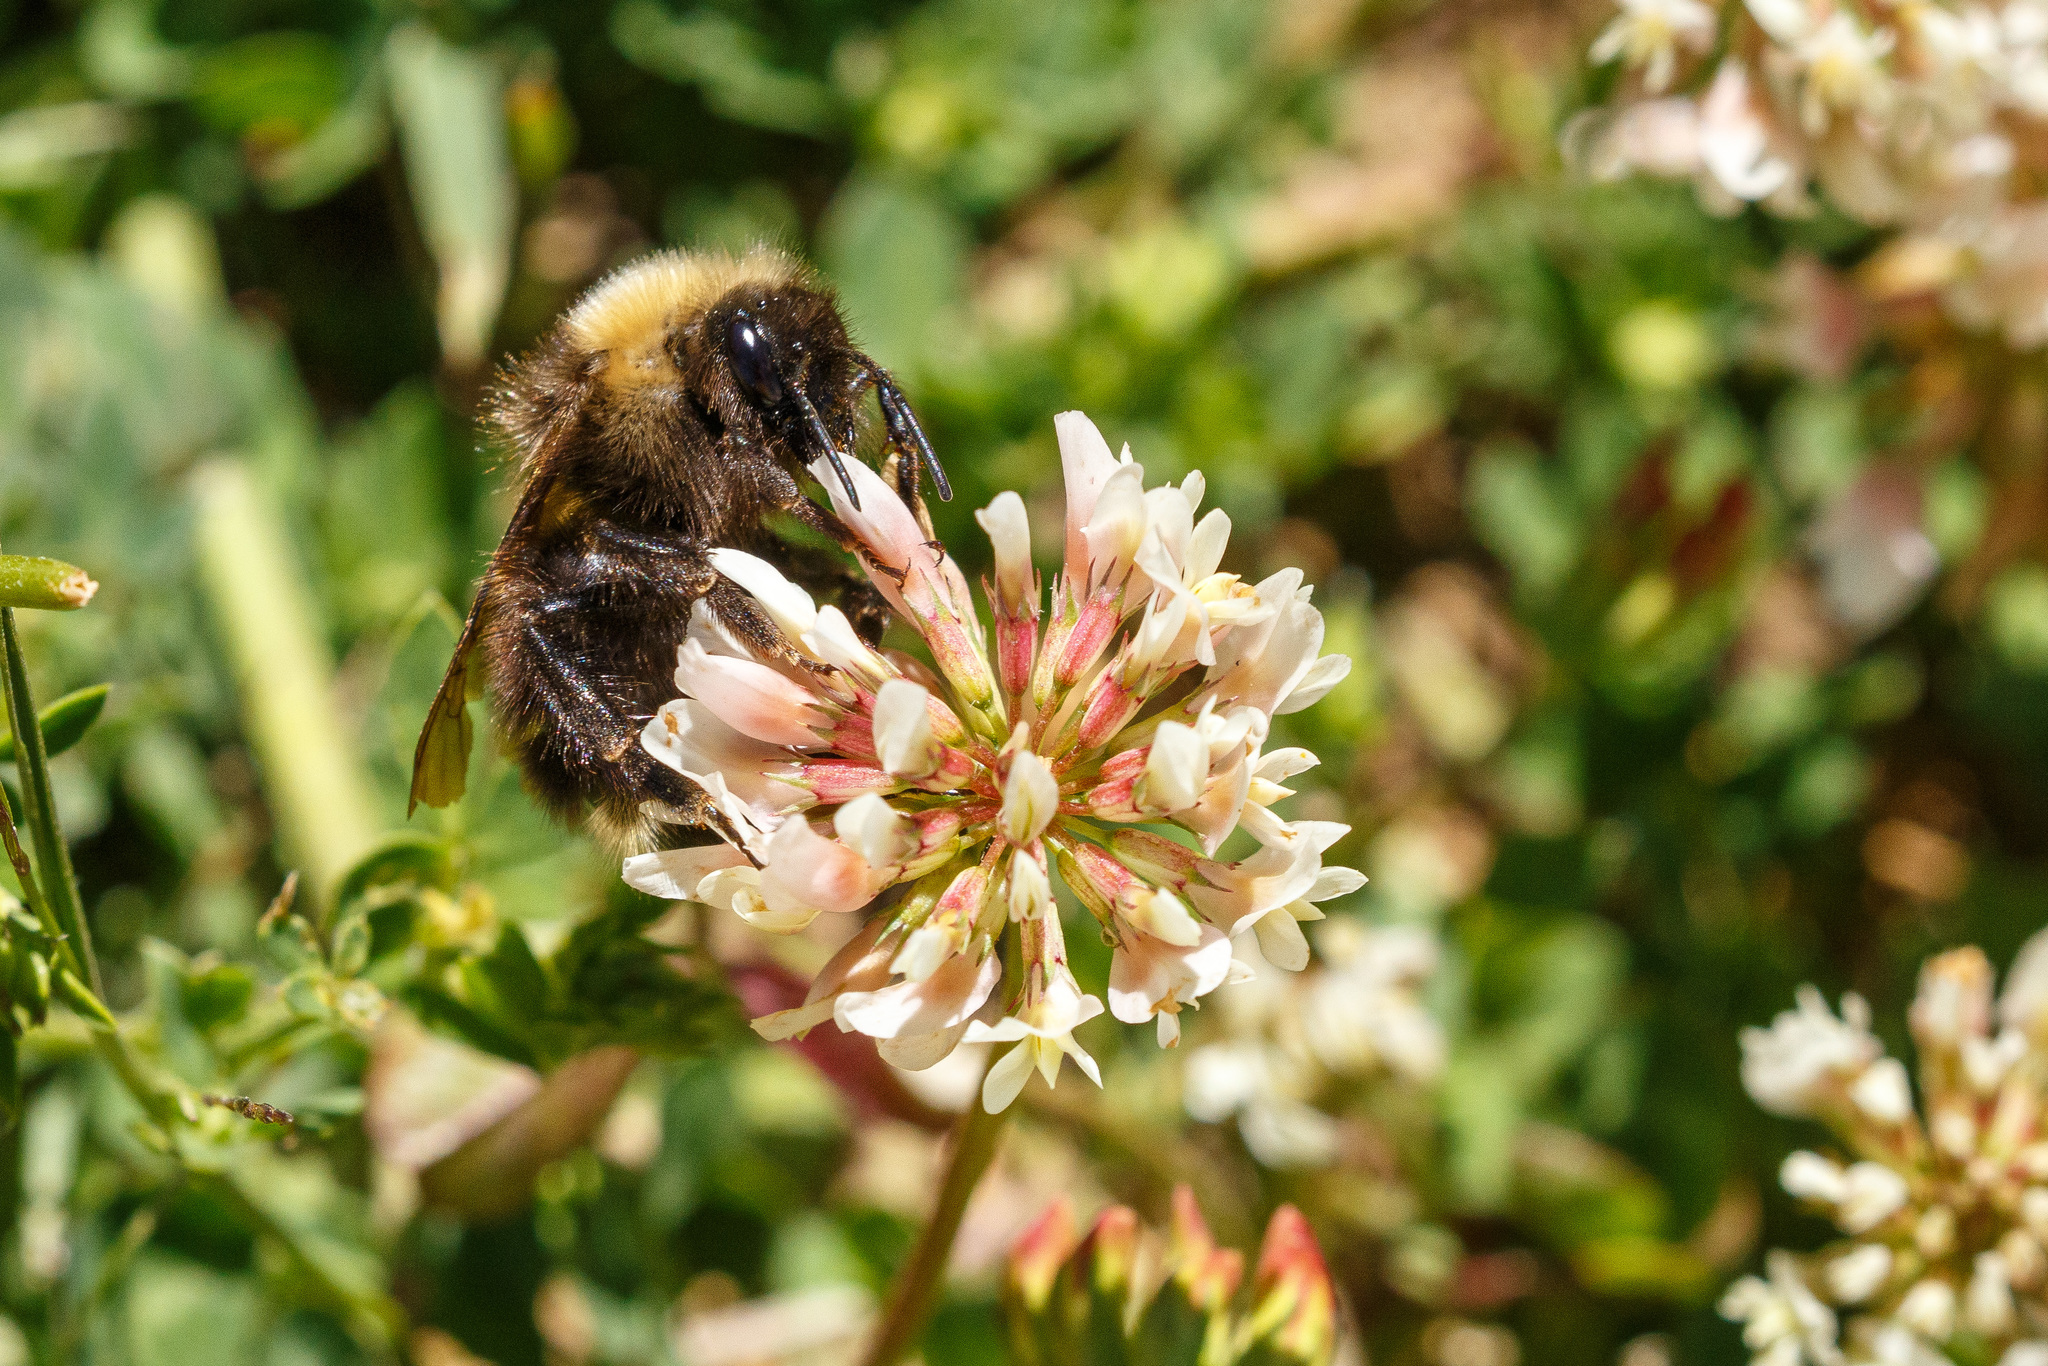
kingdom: Animalia
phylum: Arthropoda
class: Insecta
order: Hymenoptera
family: Apidae
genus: Bombus
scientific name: Bombus flavidus
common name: Fernald cuckoo bumble bee
